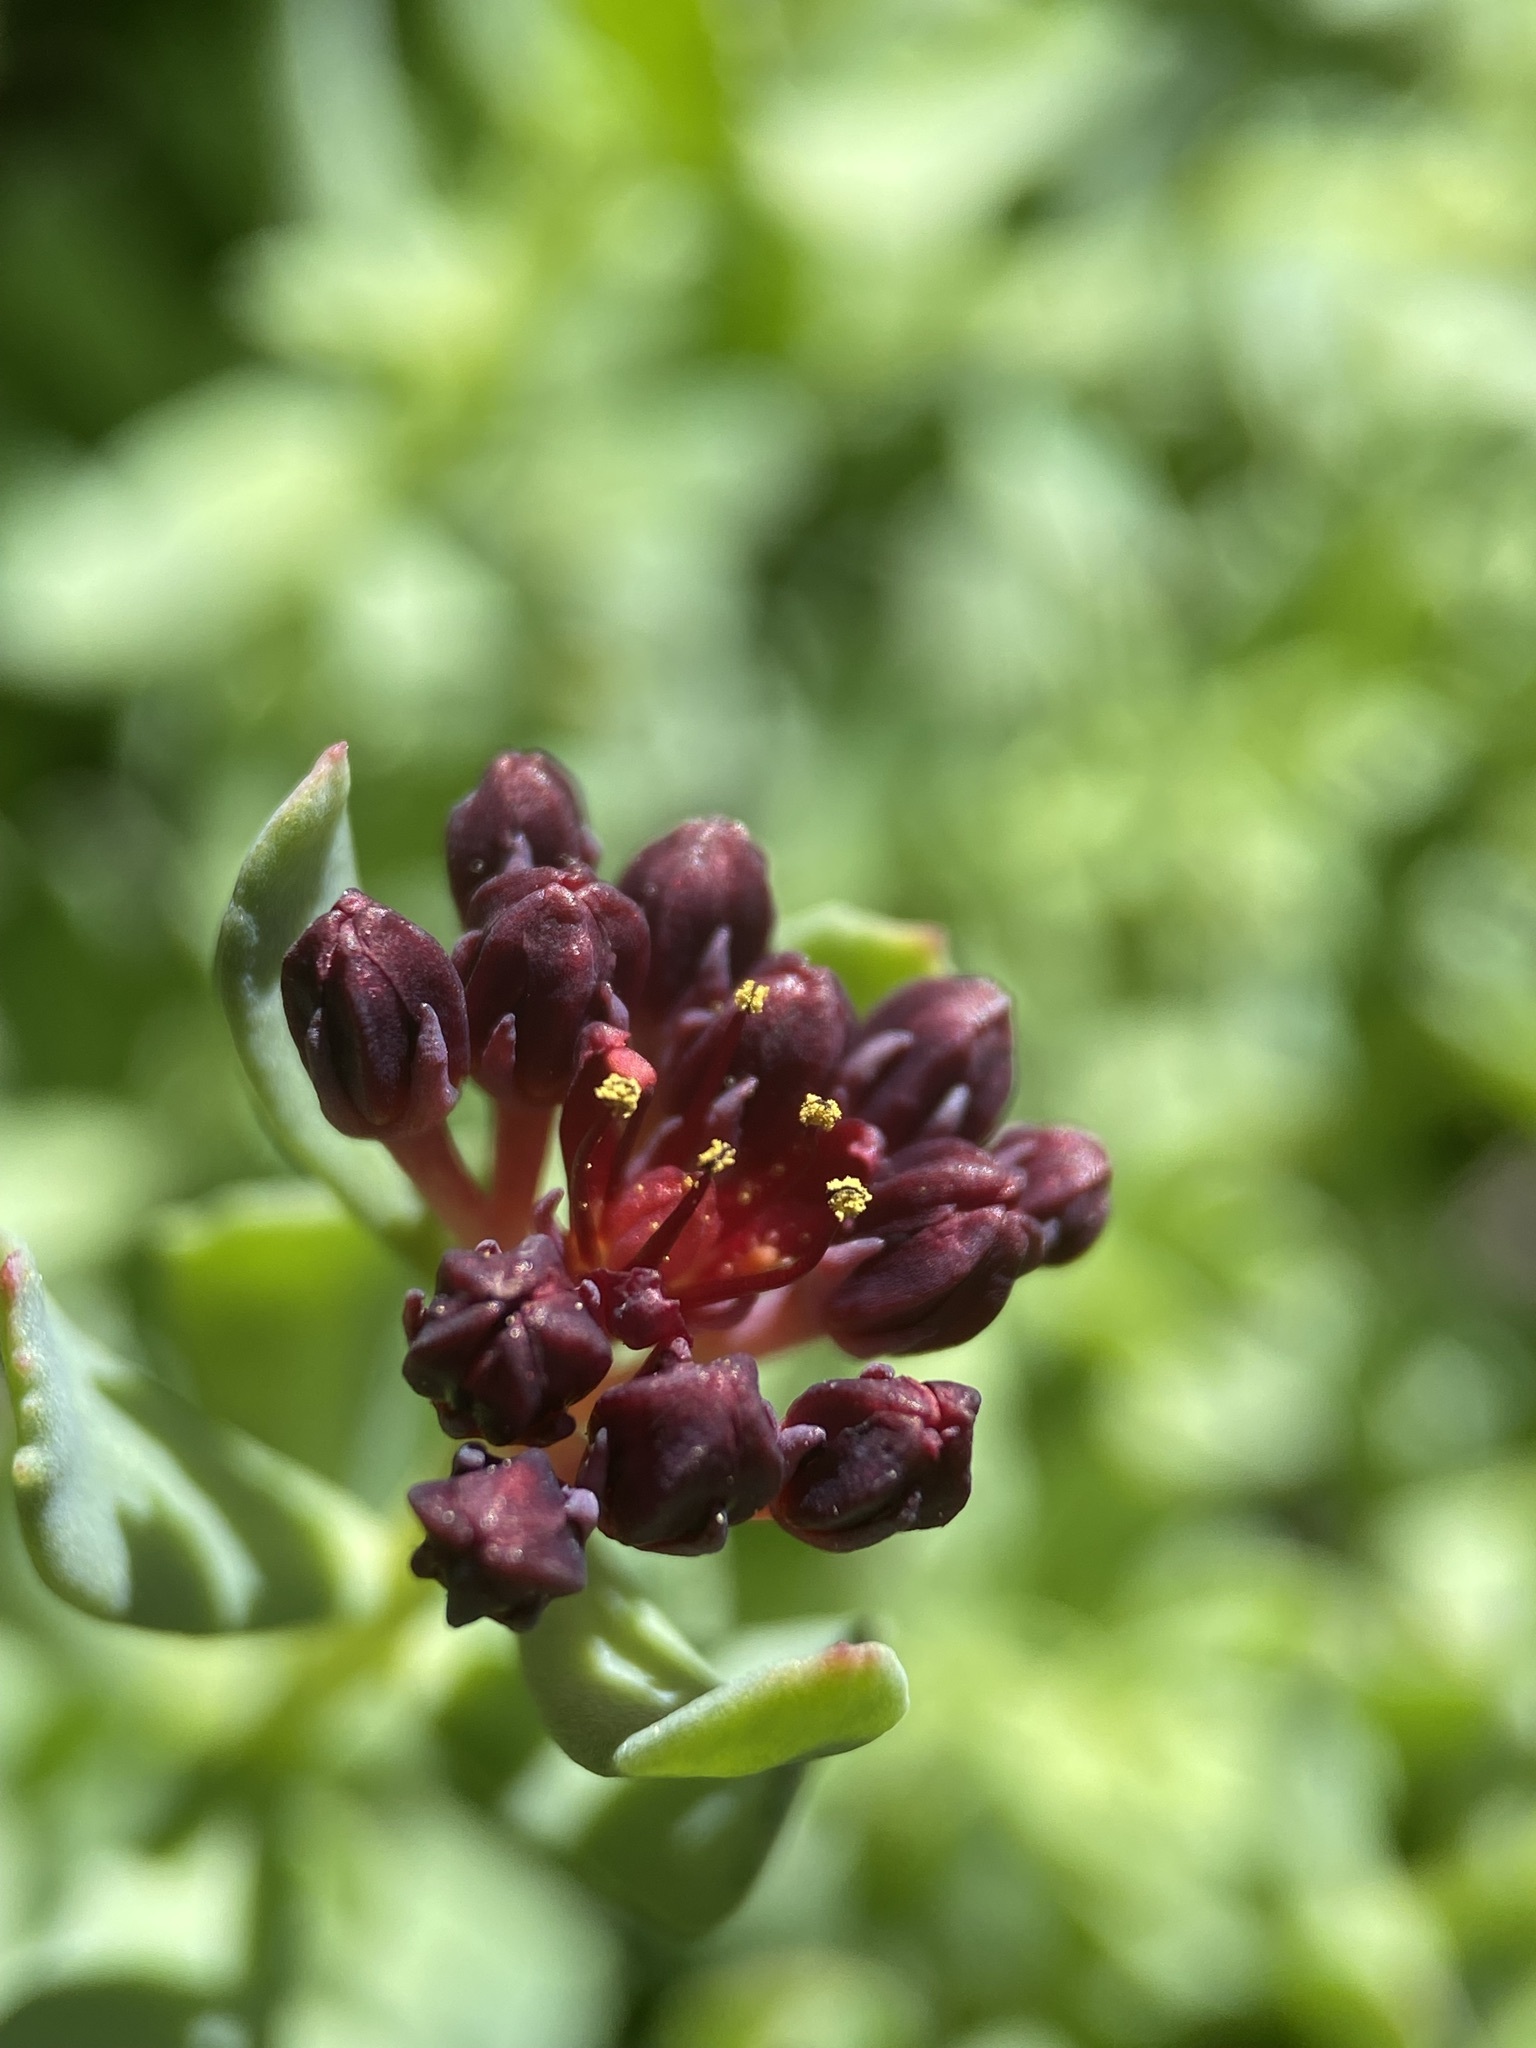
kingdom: Plantae
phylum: Tracheophyta
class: Magnoliopsida
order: Saxifragales
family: Crassulaceae
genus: Rhodiola
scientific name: Rhodiola integrifolia
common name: Western roseroot
